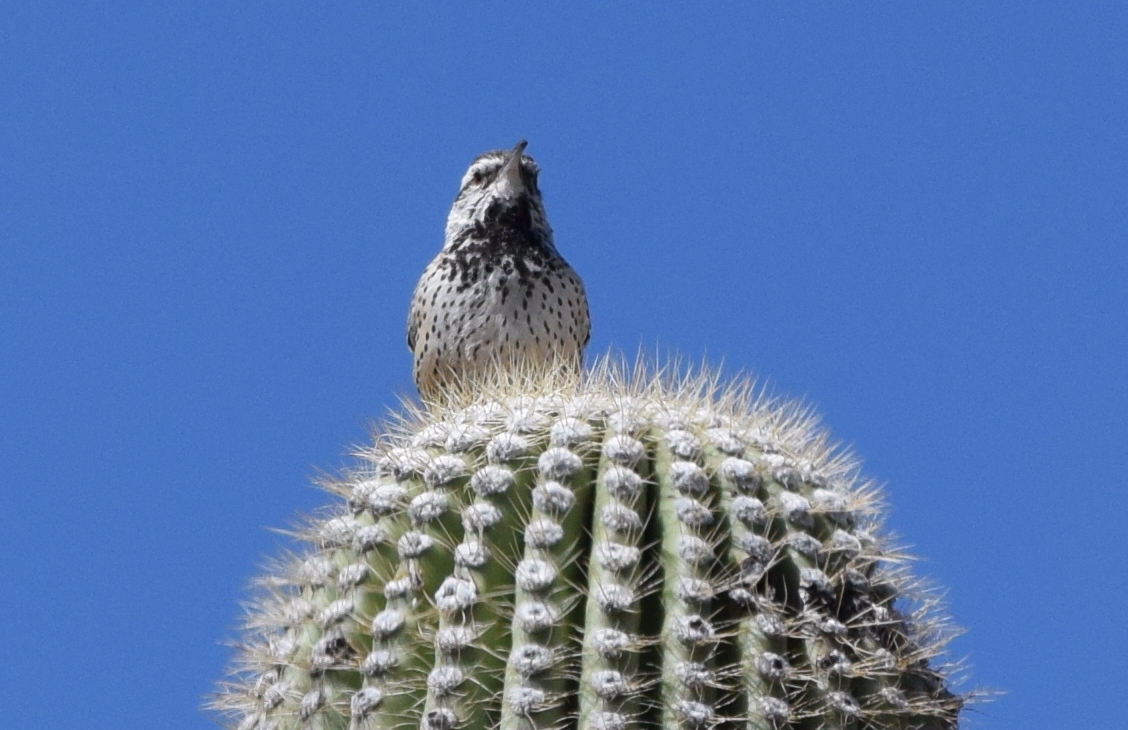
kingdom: Animalia
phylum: Chordata
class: Aves
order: Passeriformes
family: Troglodytidae
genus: Campylorhynchus
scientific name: Campylorhynchus brunneicapillus
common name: Cactus wren
